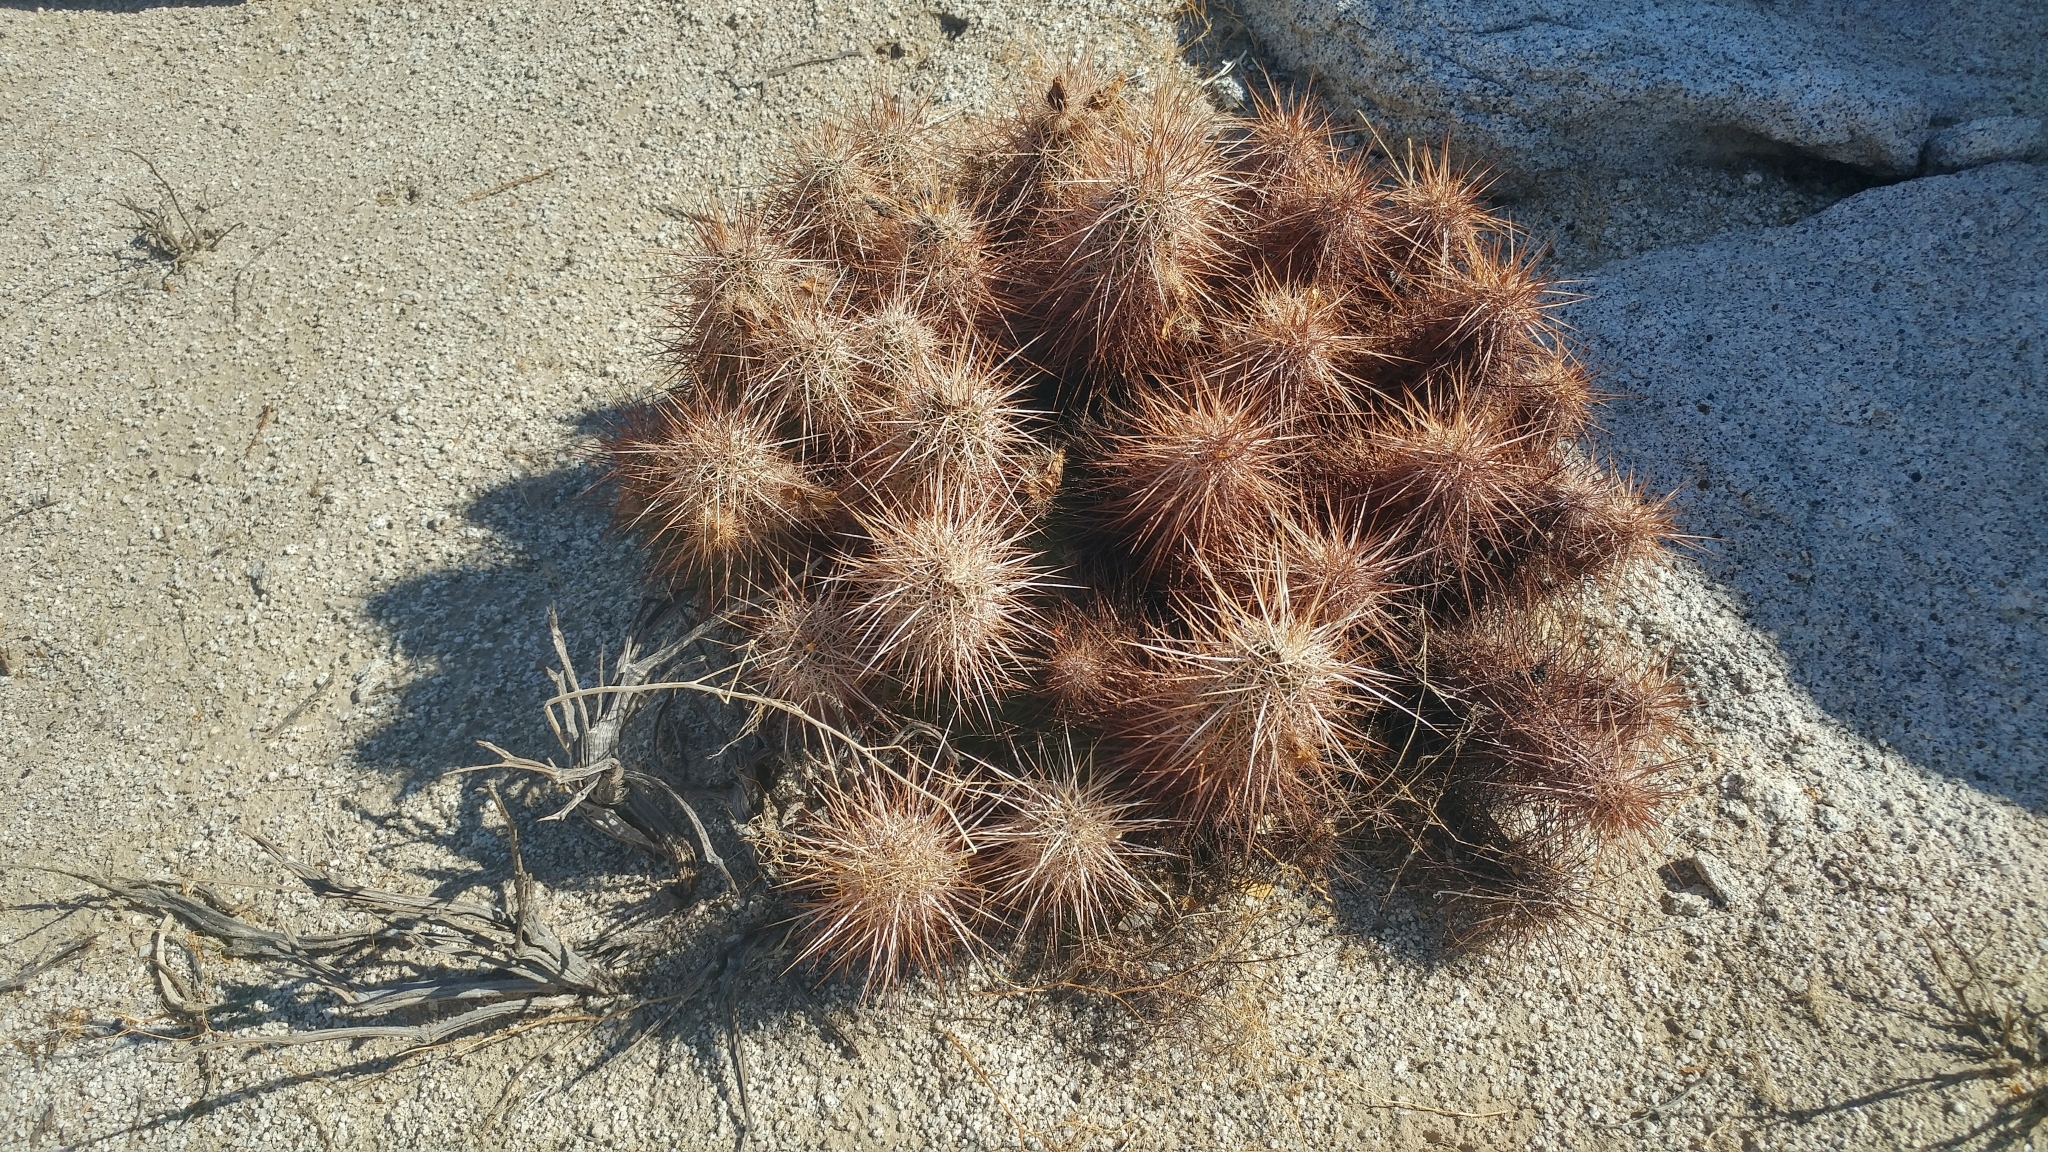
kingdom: Plantae
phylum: Tracheophyta
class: Magnoliopsida
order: Caryophyllales
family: Cactaceae
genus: Echinocereus
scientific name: Echinocereus engelmannii
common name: Engelmann's hedgehog cactus
